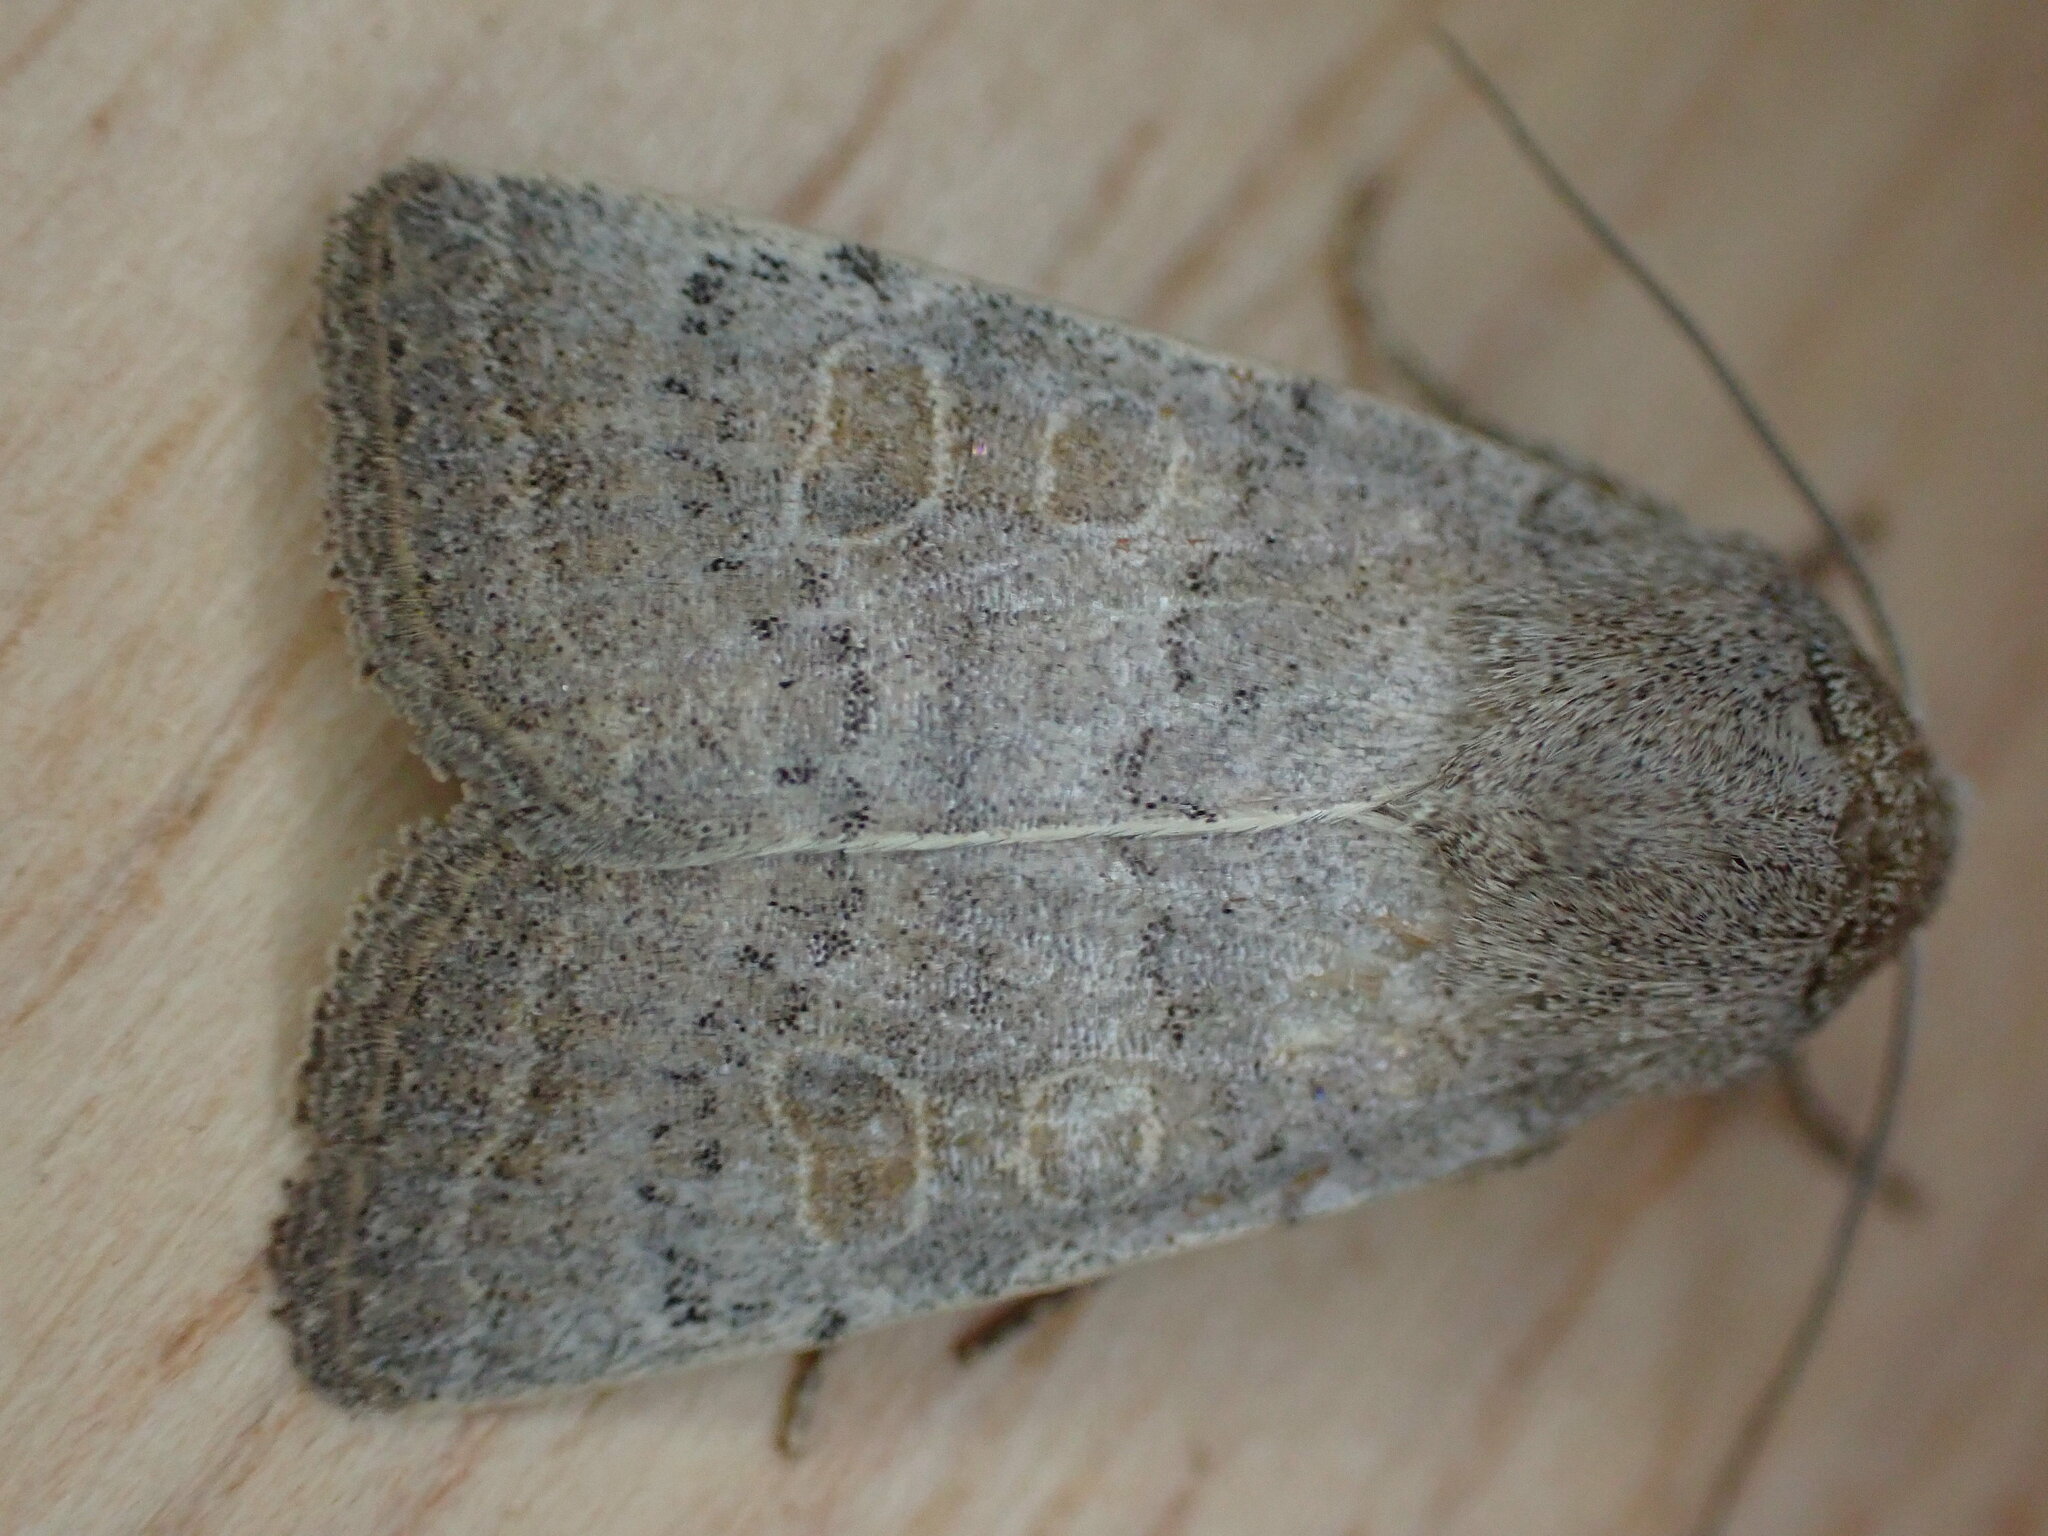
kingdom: Animalia
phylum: Arthropoda
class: Insecta
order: Lepidoptera
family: Noctuidae
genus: Hoplodrina
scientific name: Hoplodrina ambigua
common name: Vine's rustic
